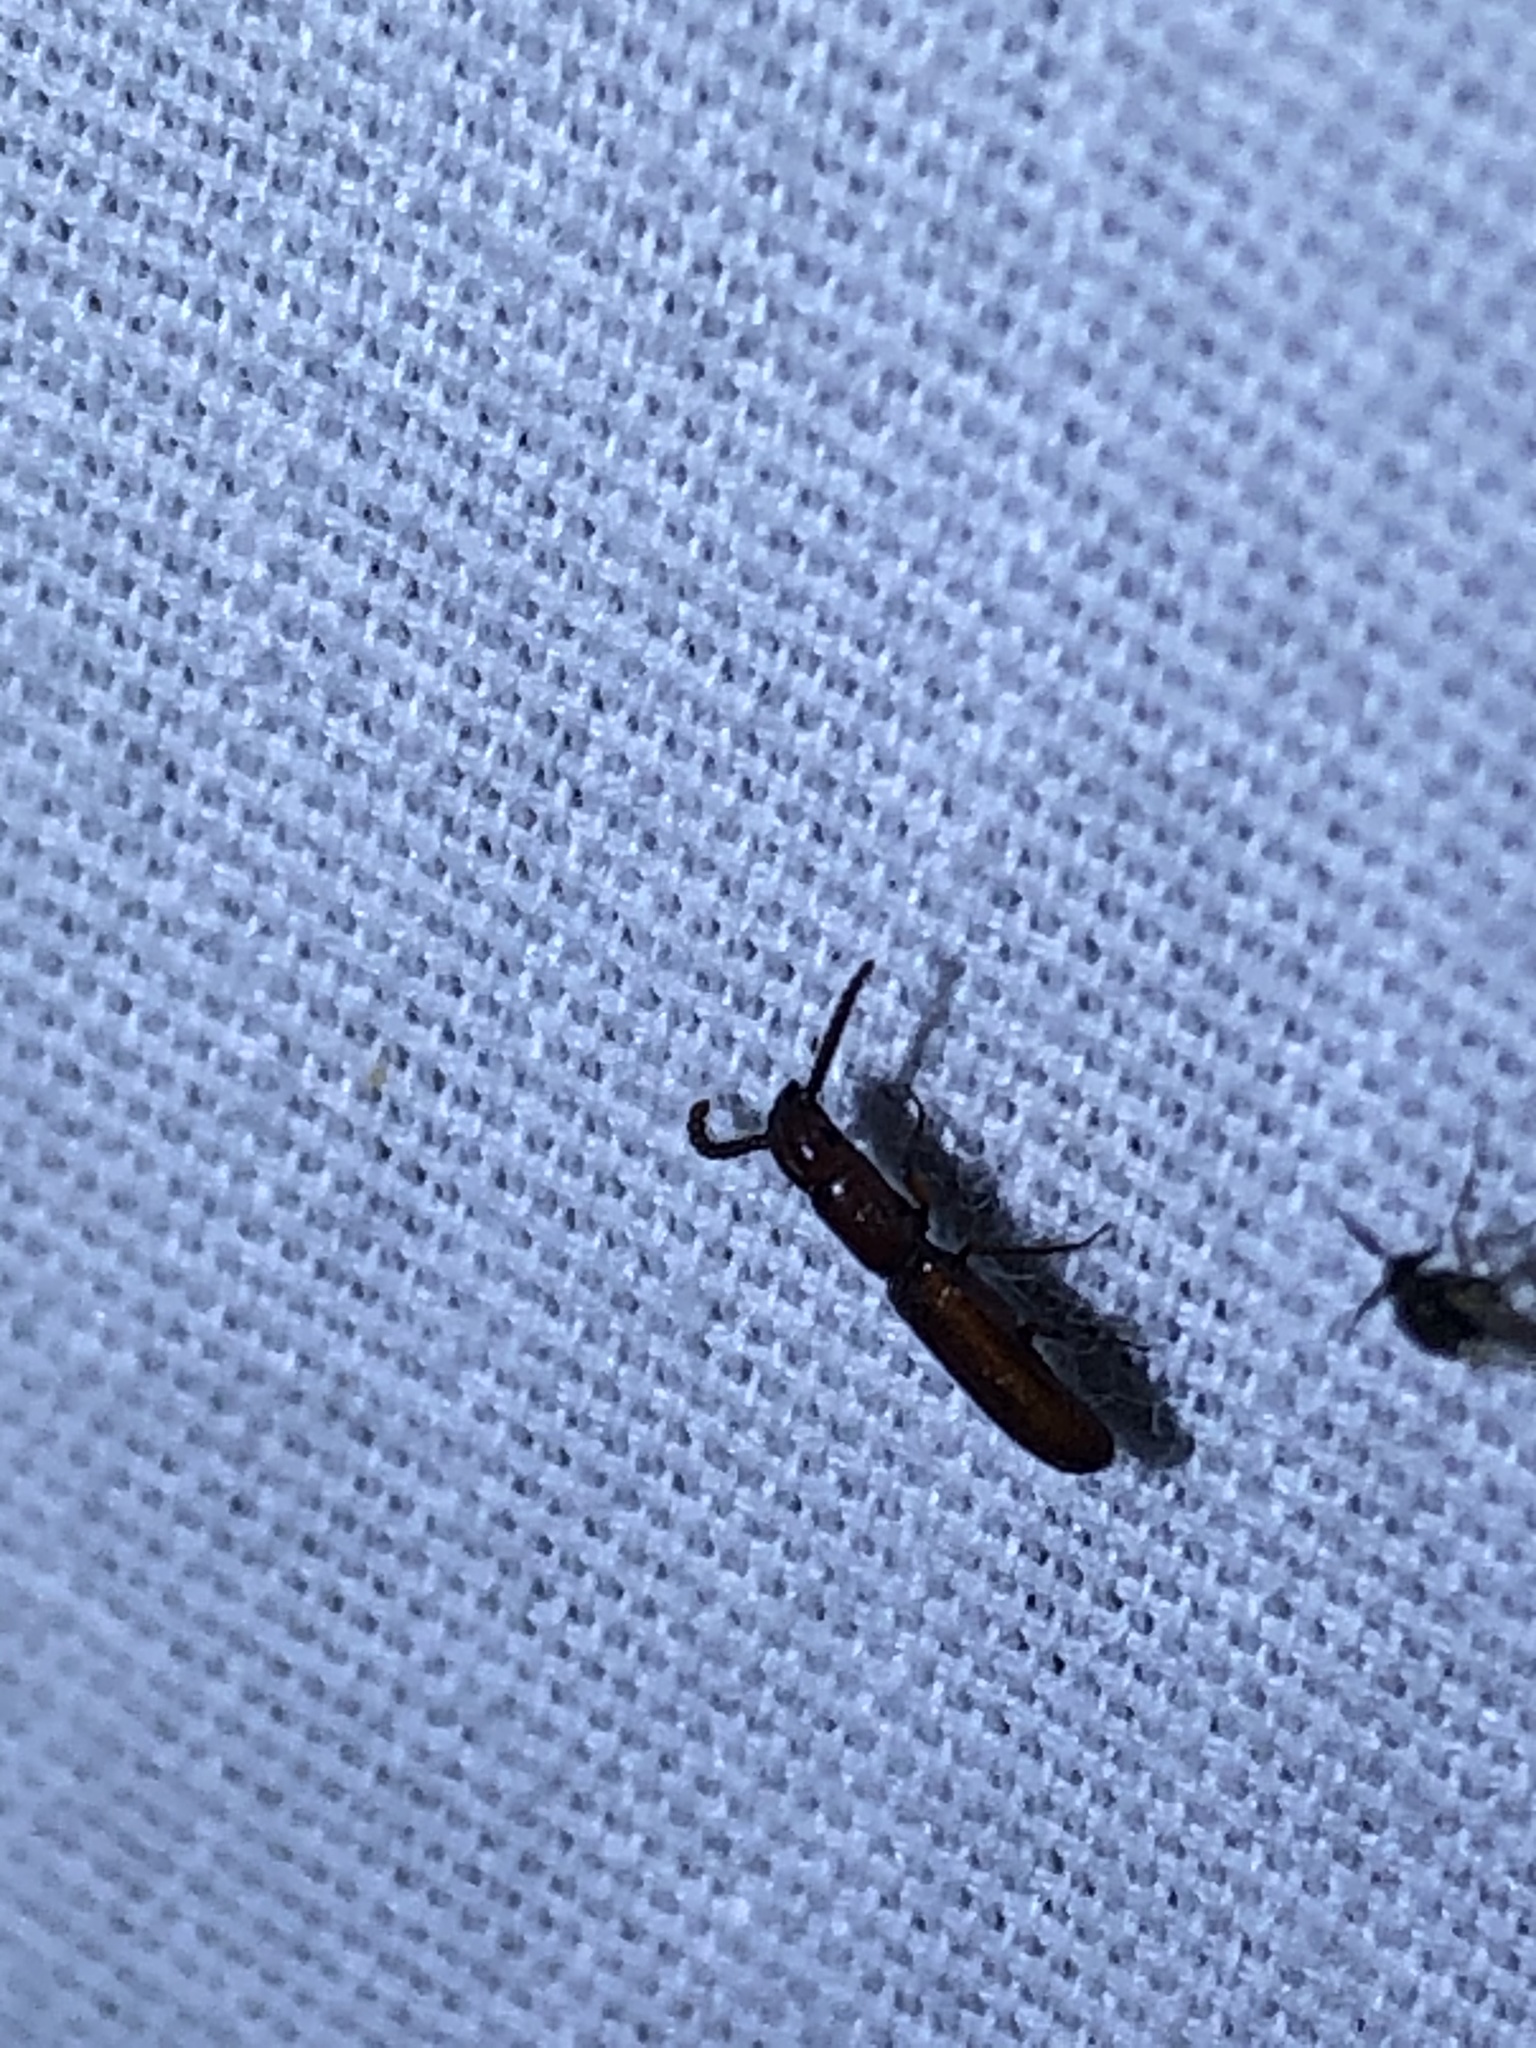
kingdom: Animalia
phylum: Arthropoda
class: Insecta
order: Coleoptera
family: Passandridae
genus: Taphroscelidia
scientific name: Taphroscelidia linearis
